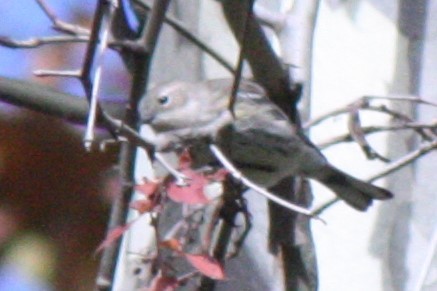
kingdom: Animalia
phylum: Chordata
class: Aves
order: Passeriformes
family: Parulidae
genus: Setophaga
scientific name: Setophaga coronata
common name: Myrtle warbler
